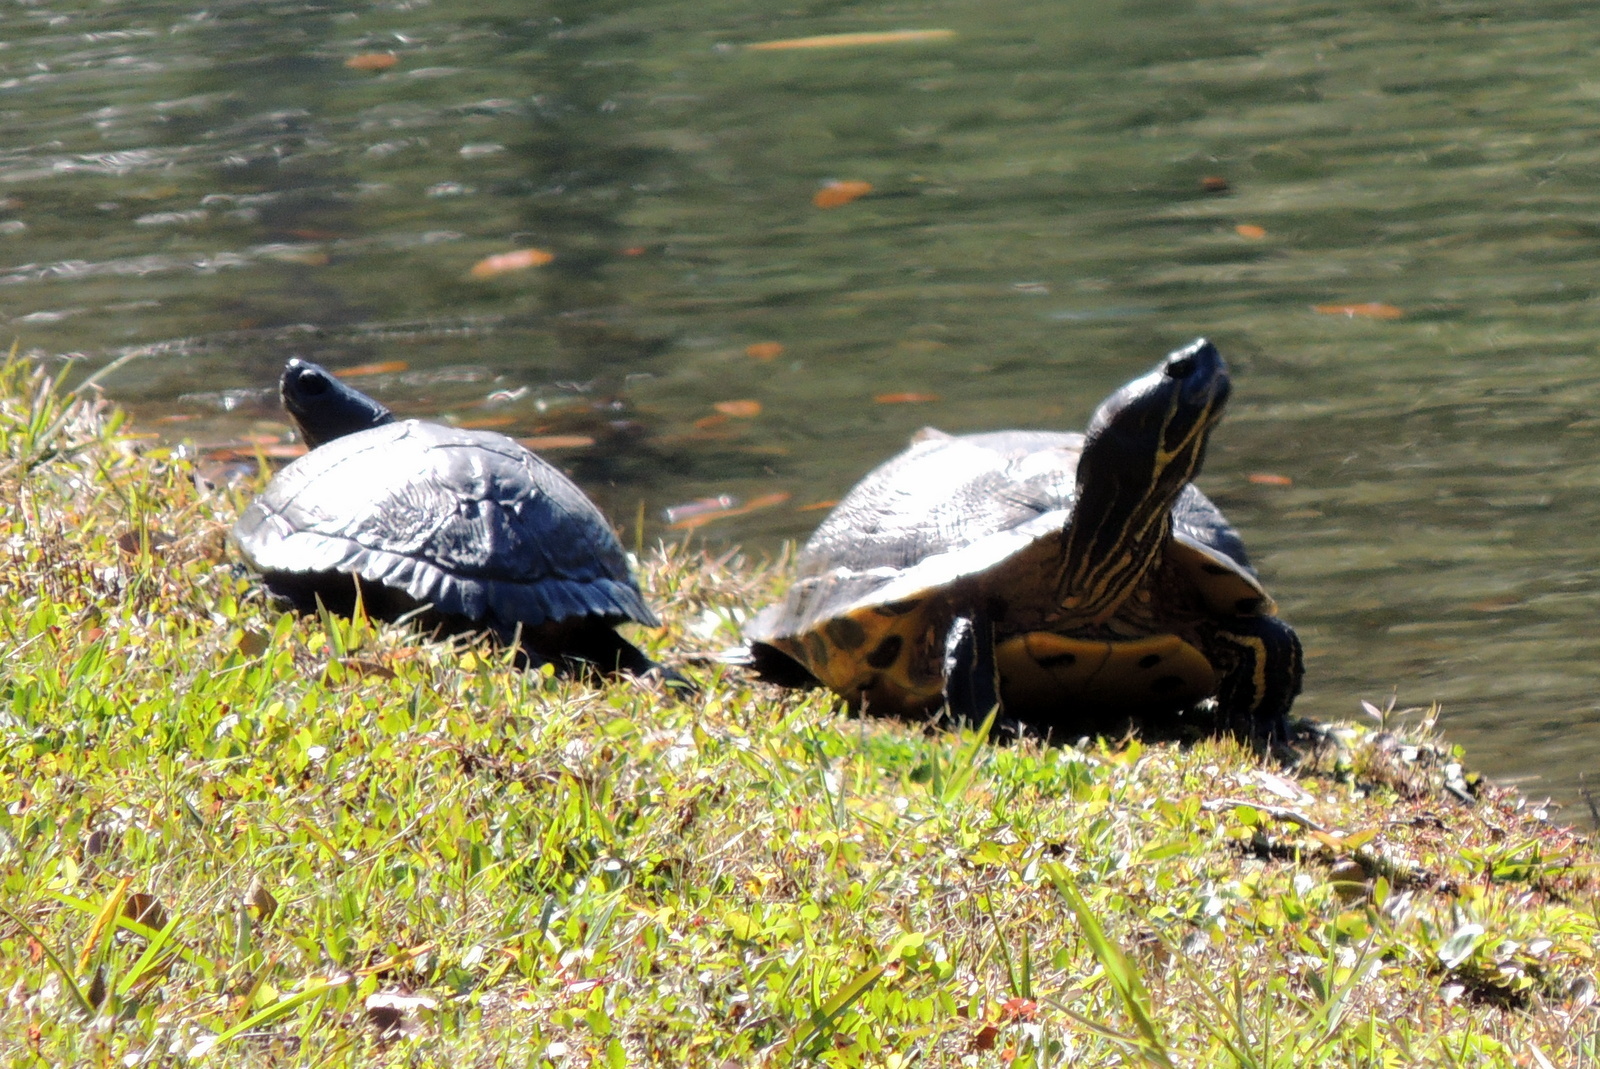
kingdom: Animalia
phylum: Chordata
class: Testudines
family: Emydidae
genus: Trachemys
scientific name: Trachemys scripta
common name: Slider
